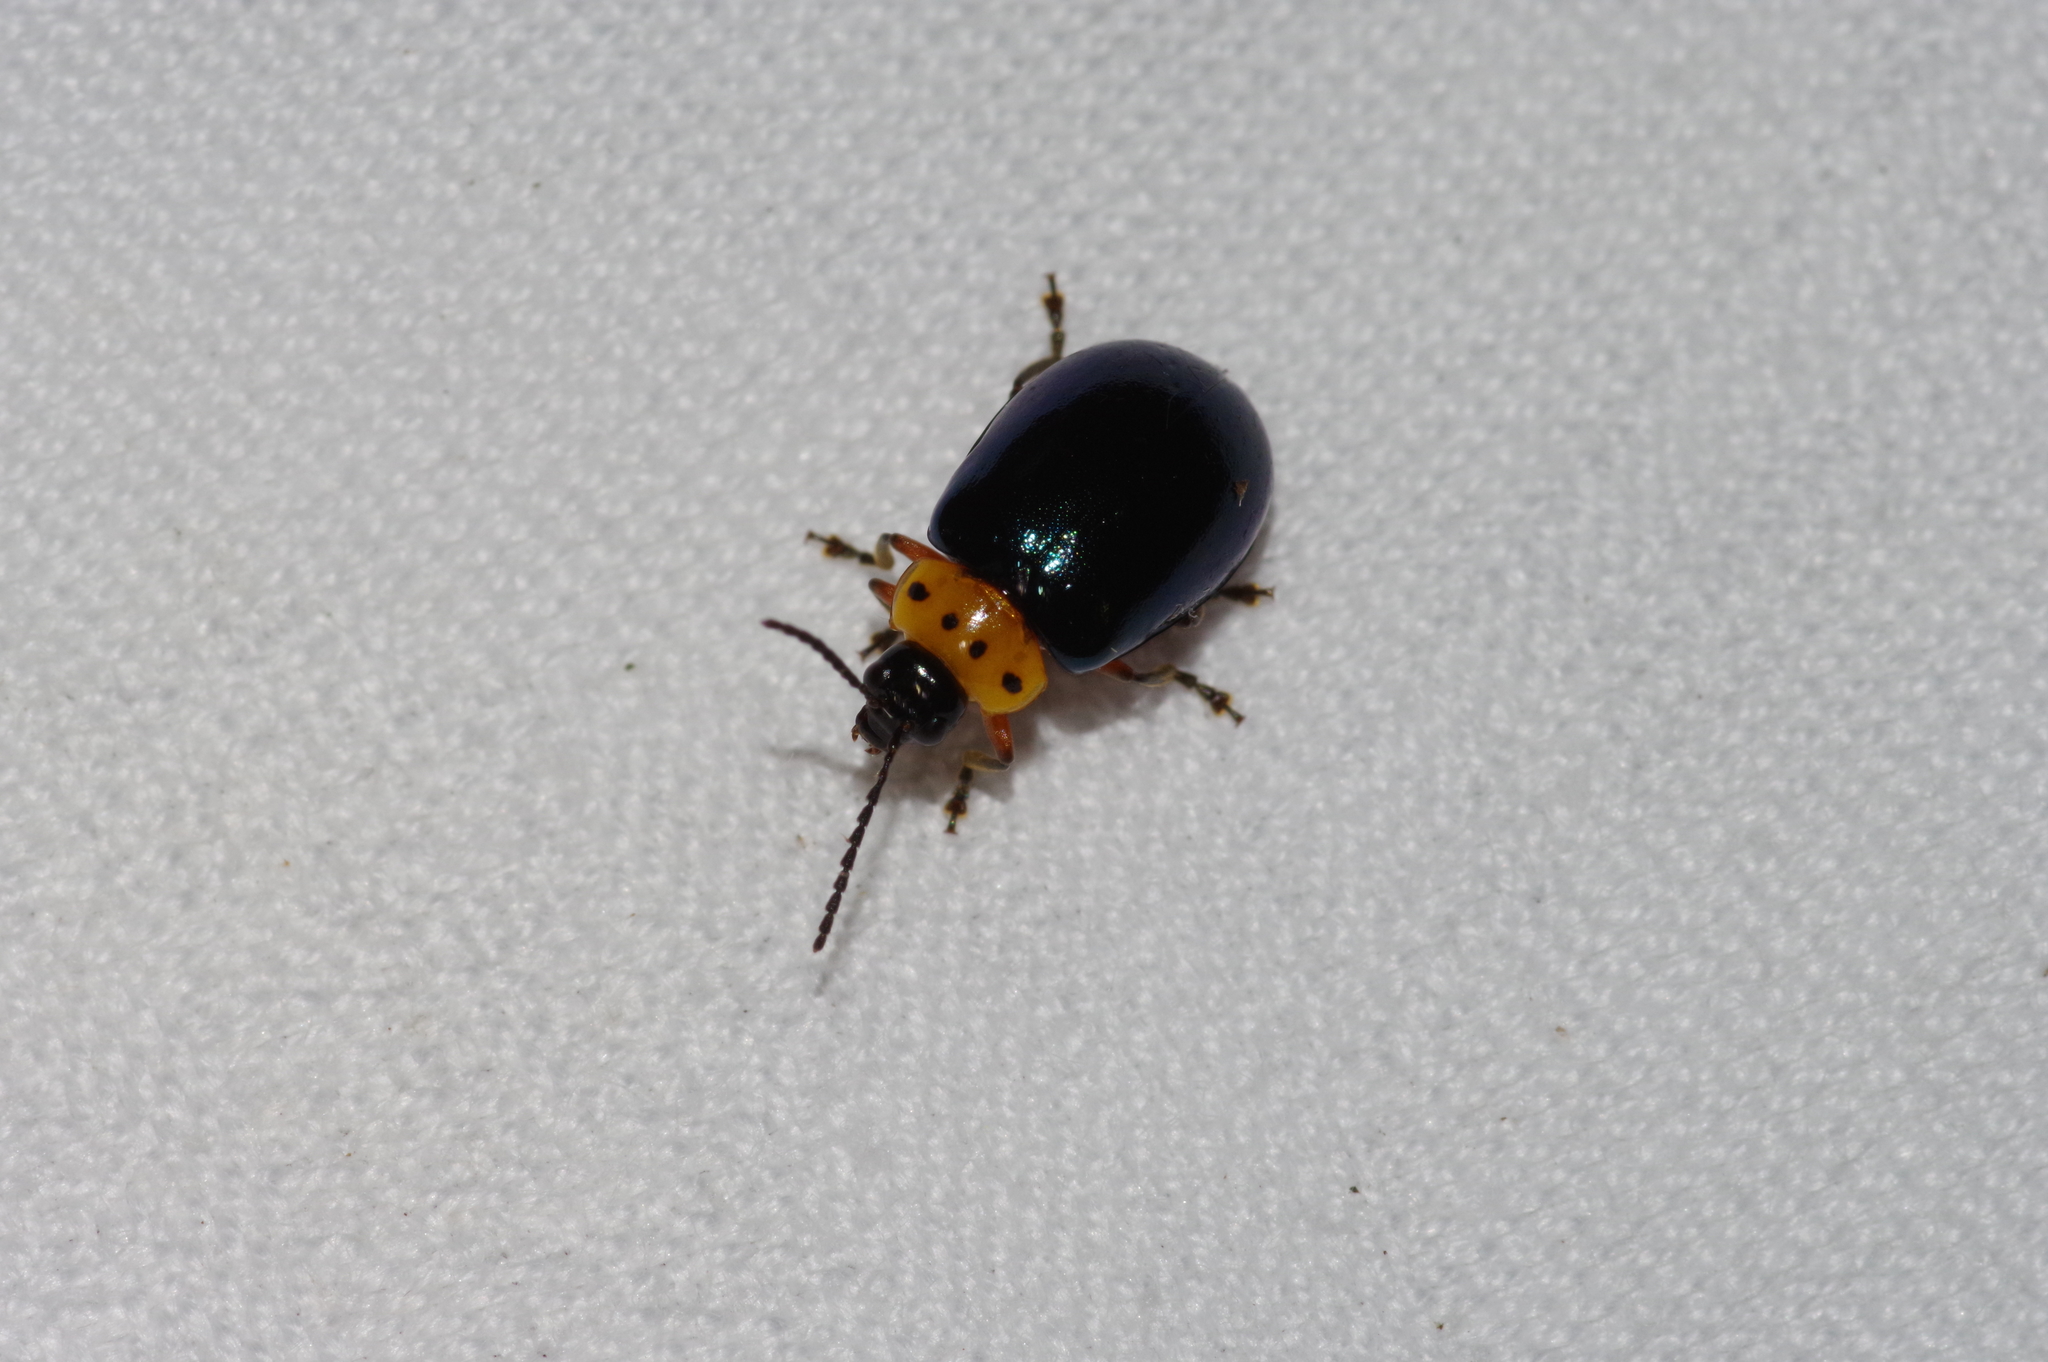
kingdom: Animalia
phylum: Arthropoda
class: Insecta
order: Coleoptera
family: Chrysomelidae
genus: Morphosphaera
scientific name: Morphosphaera caerulea
